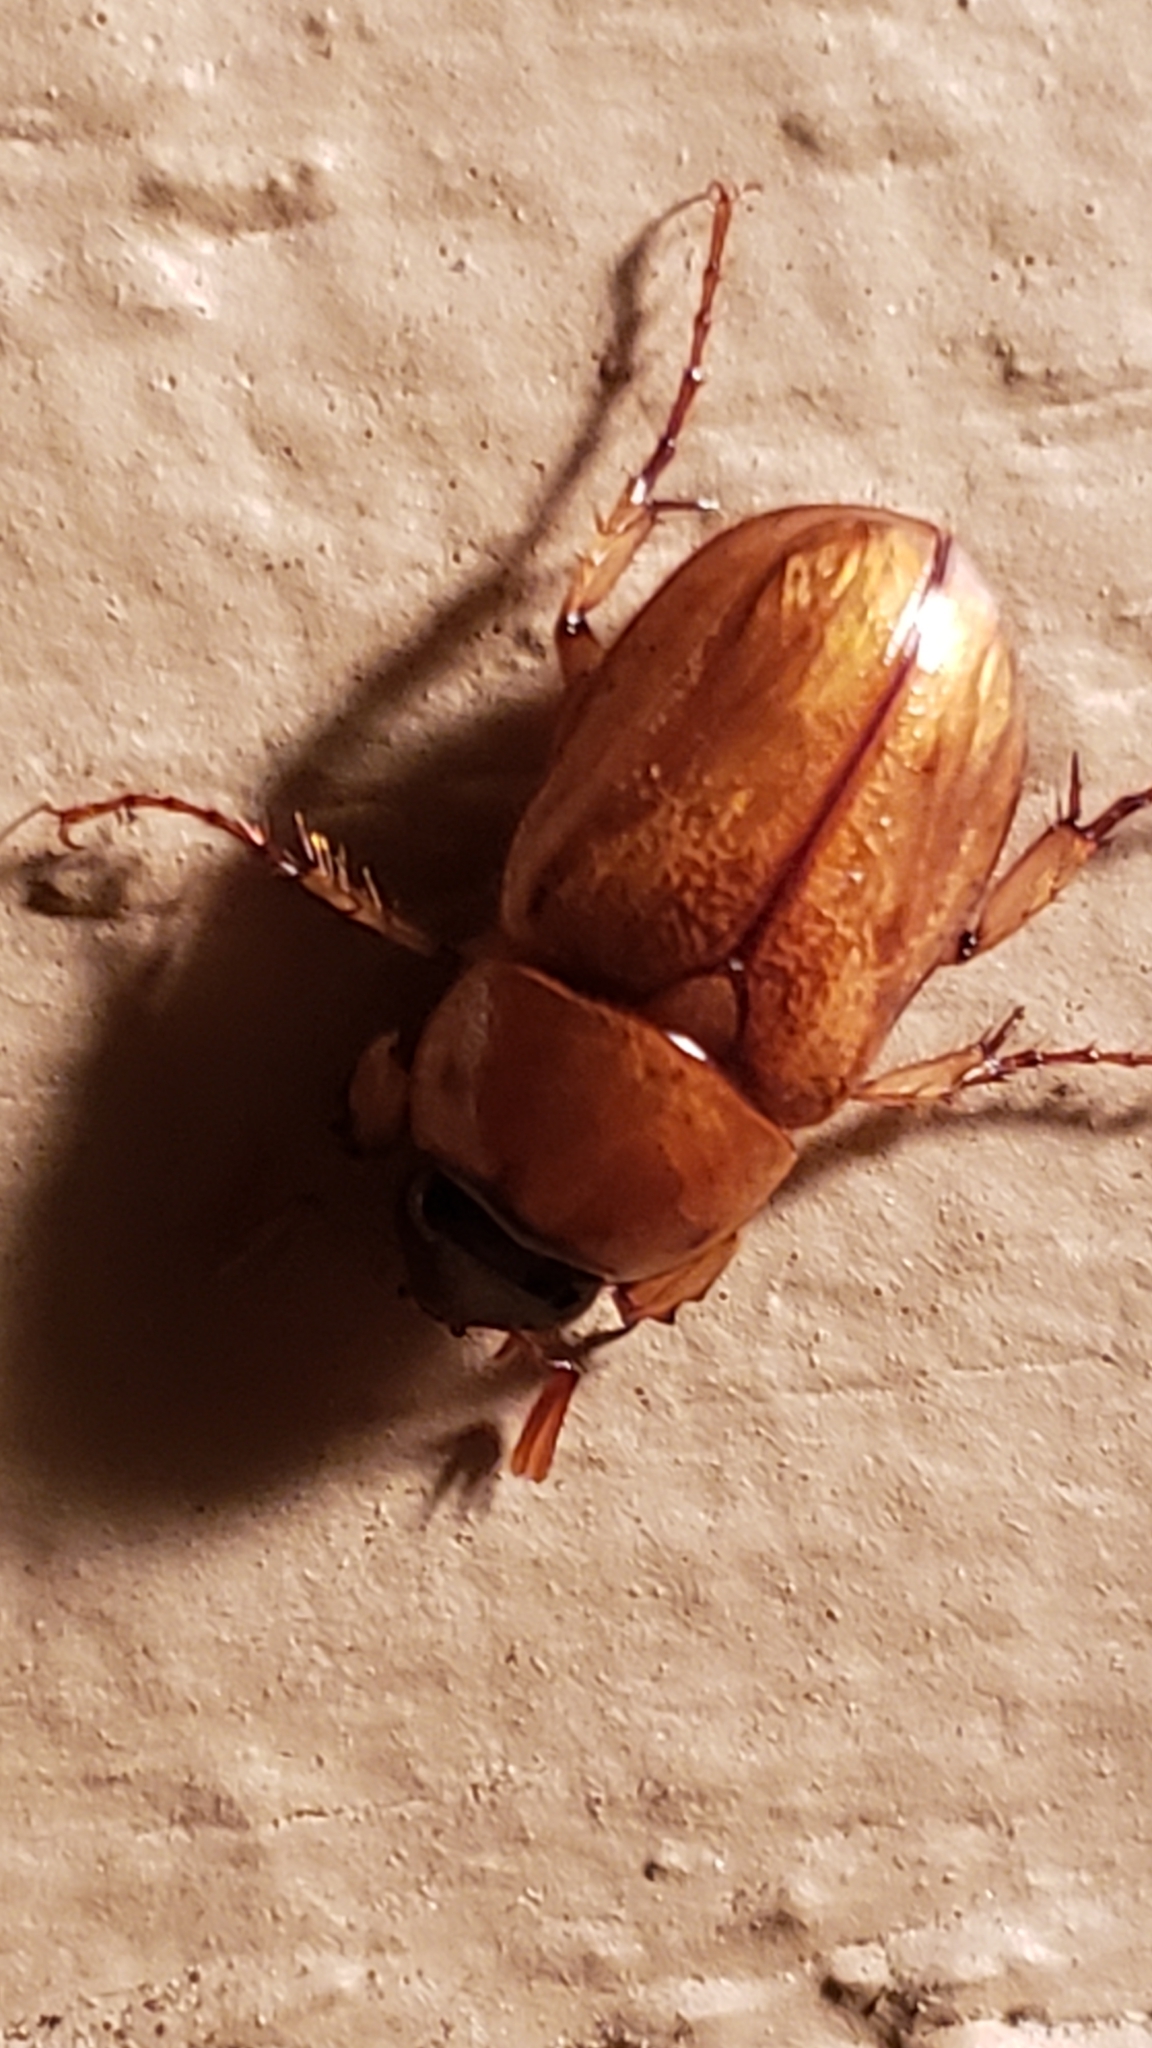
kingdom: Animalia
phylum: Arthropoda
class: Insecta
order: Coleoptera
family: Scarabaeidae
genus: Cyclocephala
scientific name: Cyclocephala lurida
